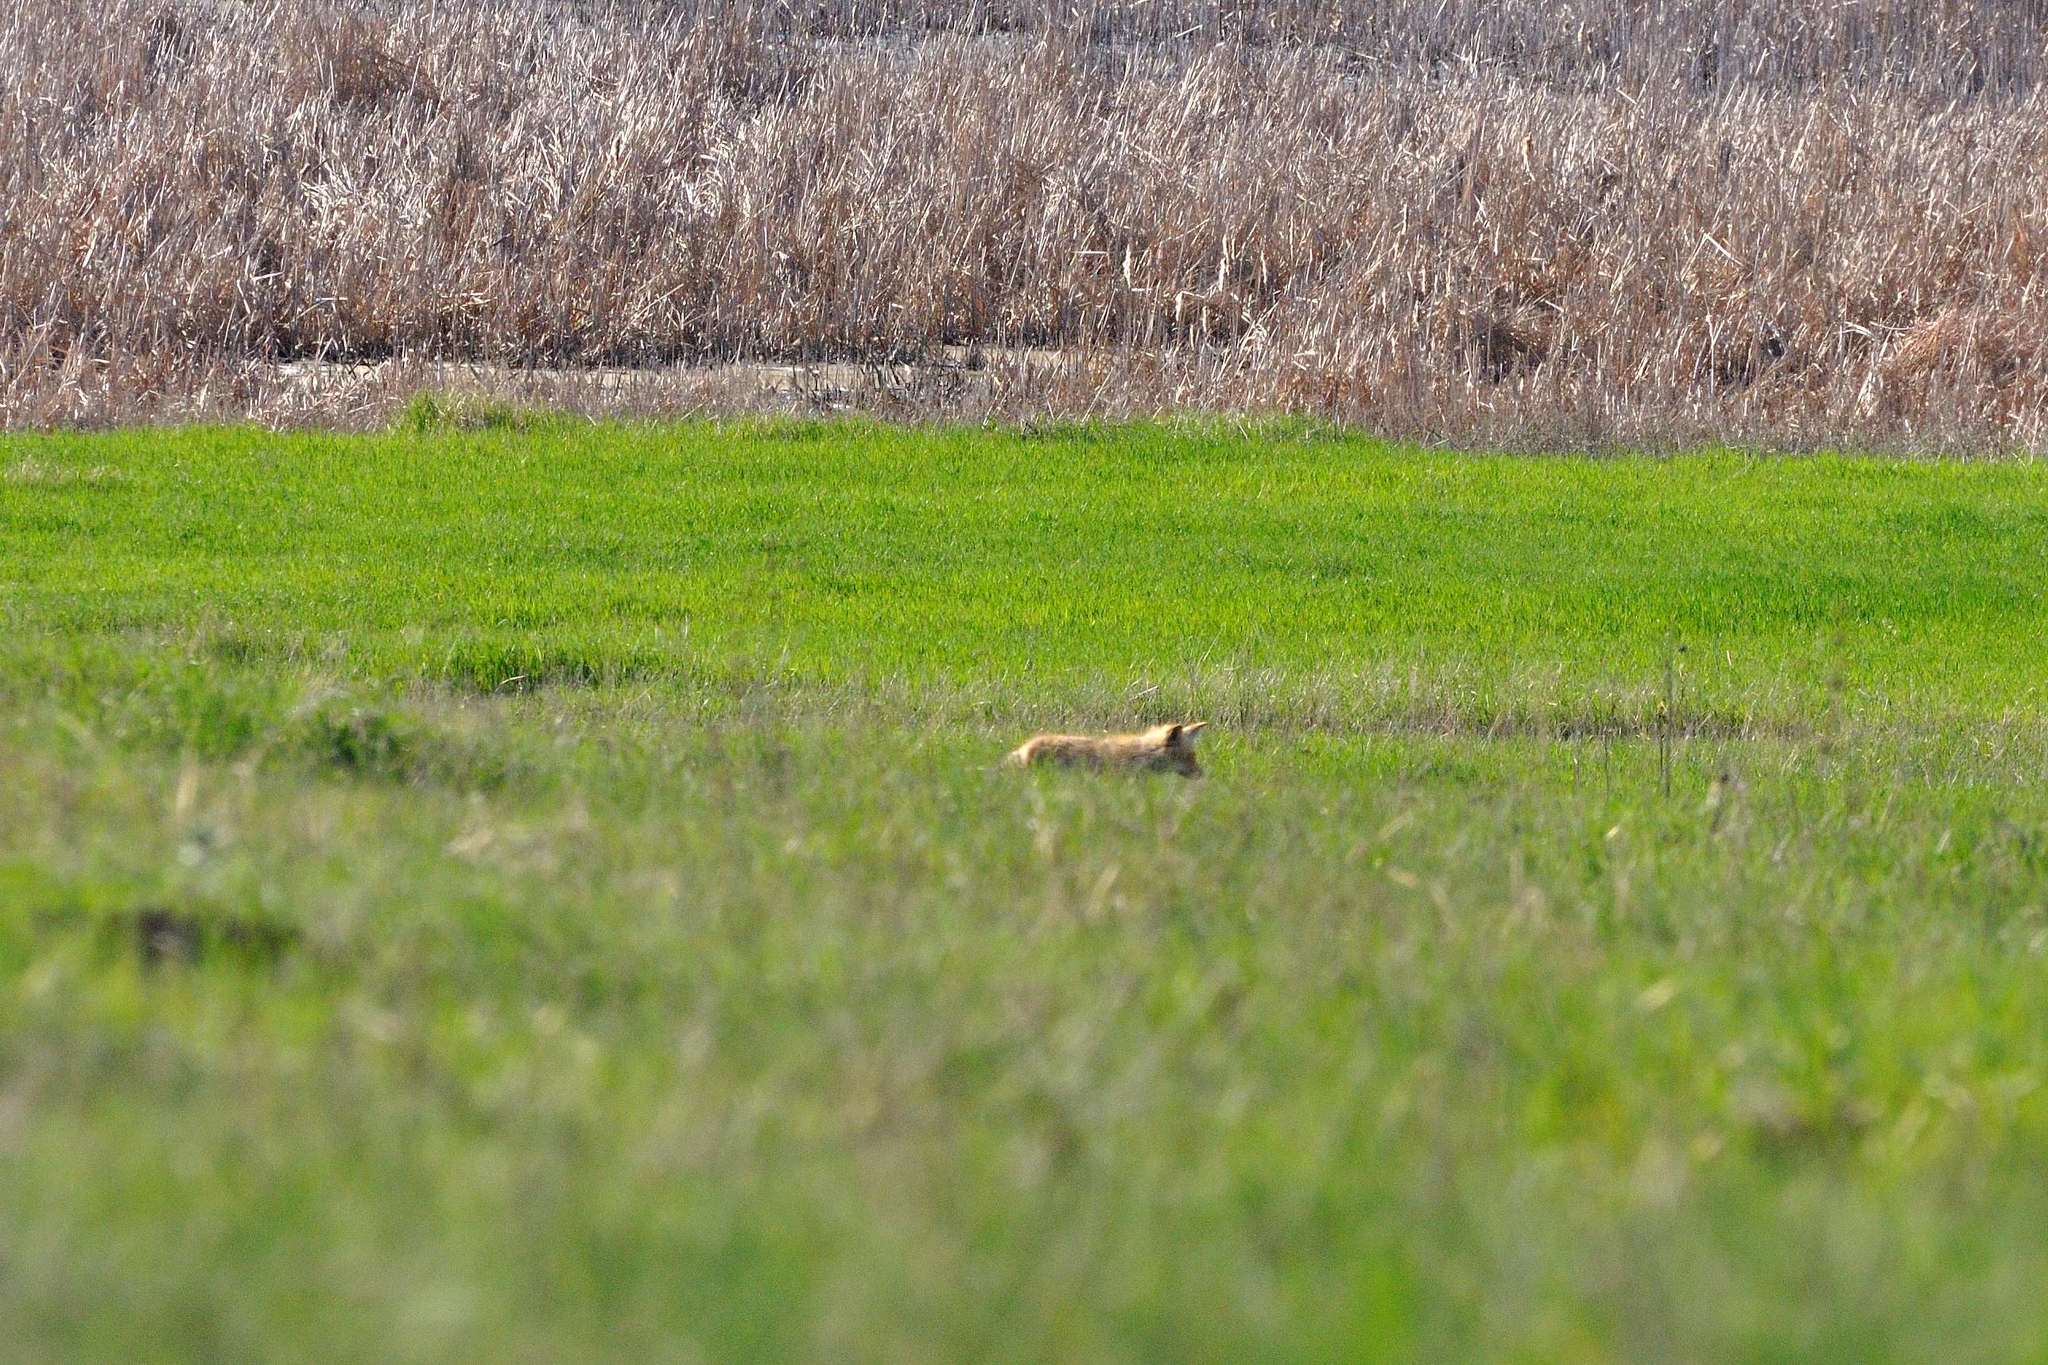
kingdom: Animalia
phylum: Chordata
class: Mammalia
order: Carnivora
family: Canidae
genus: Vulpes
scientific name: Vulpes vulpes
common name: Red fox
